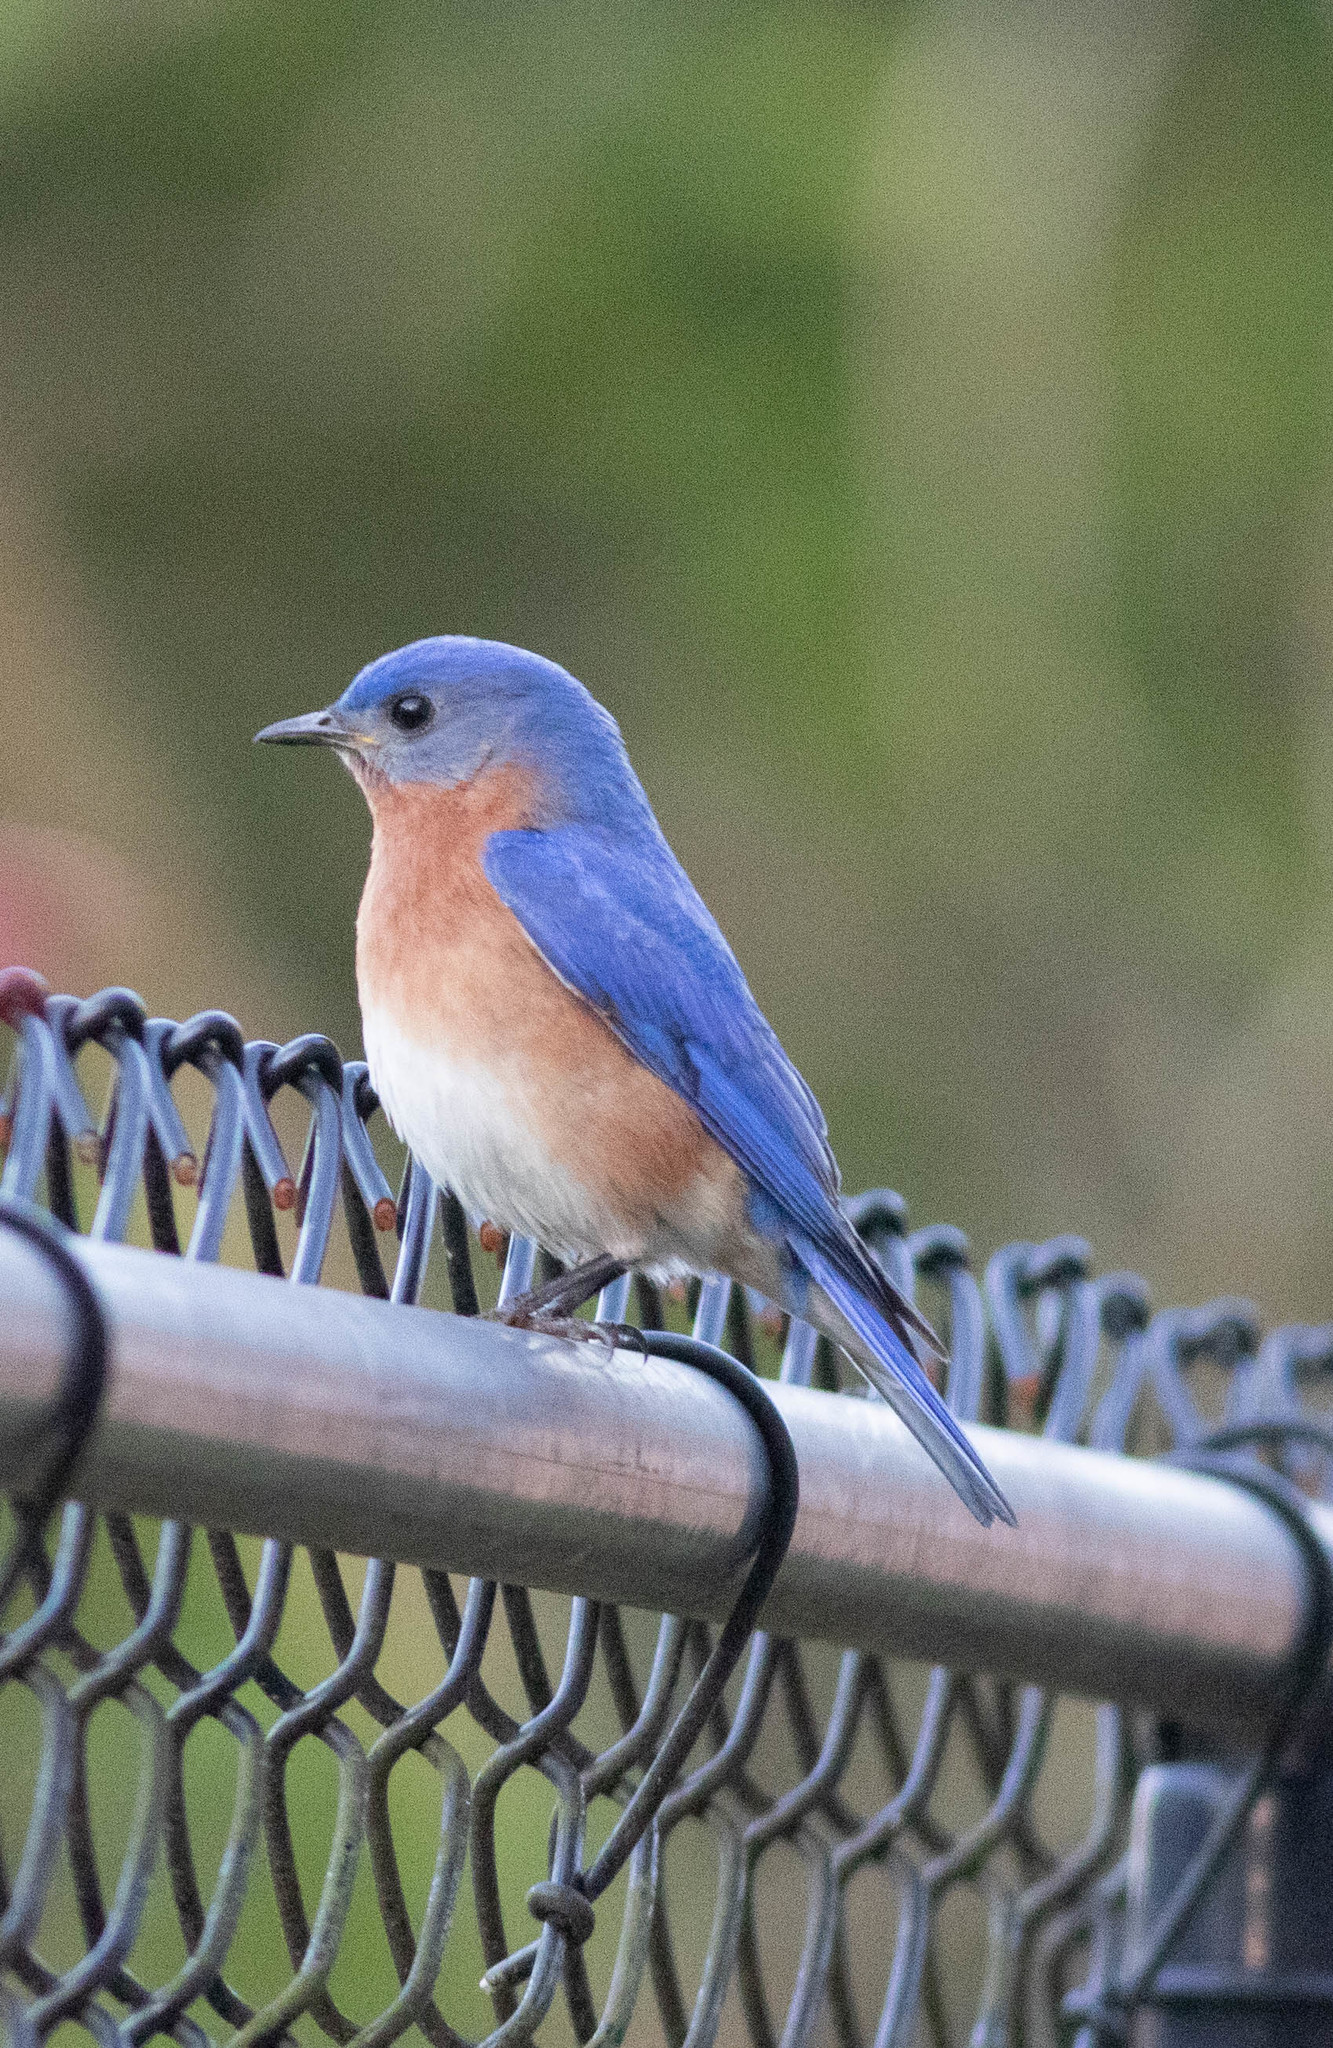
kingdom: Animalia
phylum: Chordata
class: Aves
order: Passeriformes
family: Turdidae
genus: Sialia
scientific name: Sialia sialis
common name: Eastern bluebird
